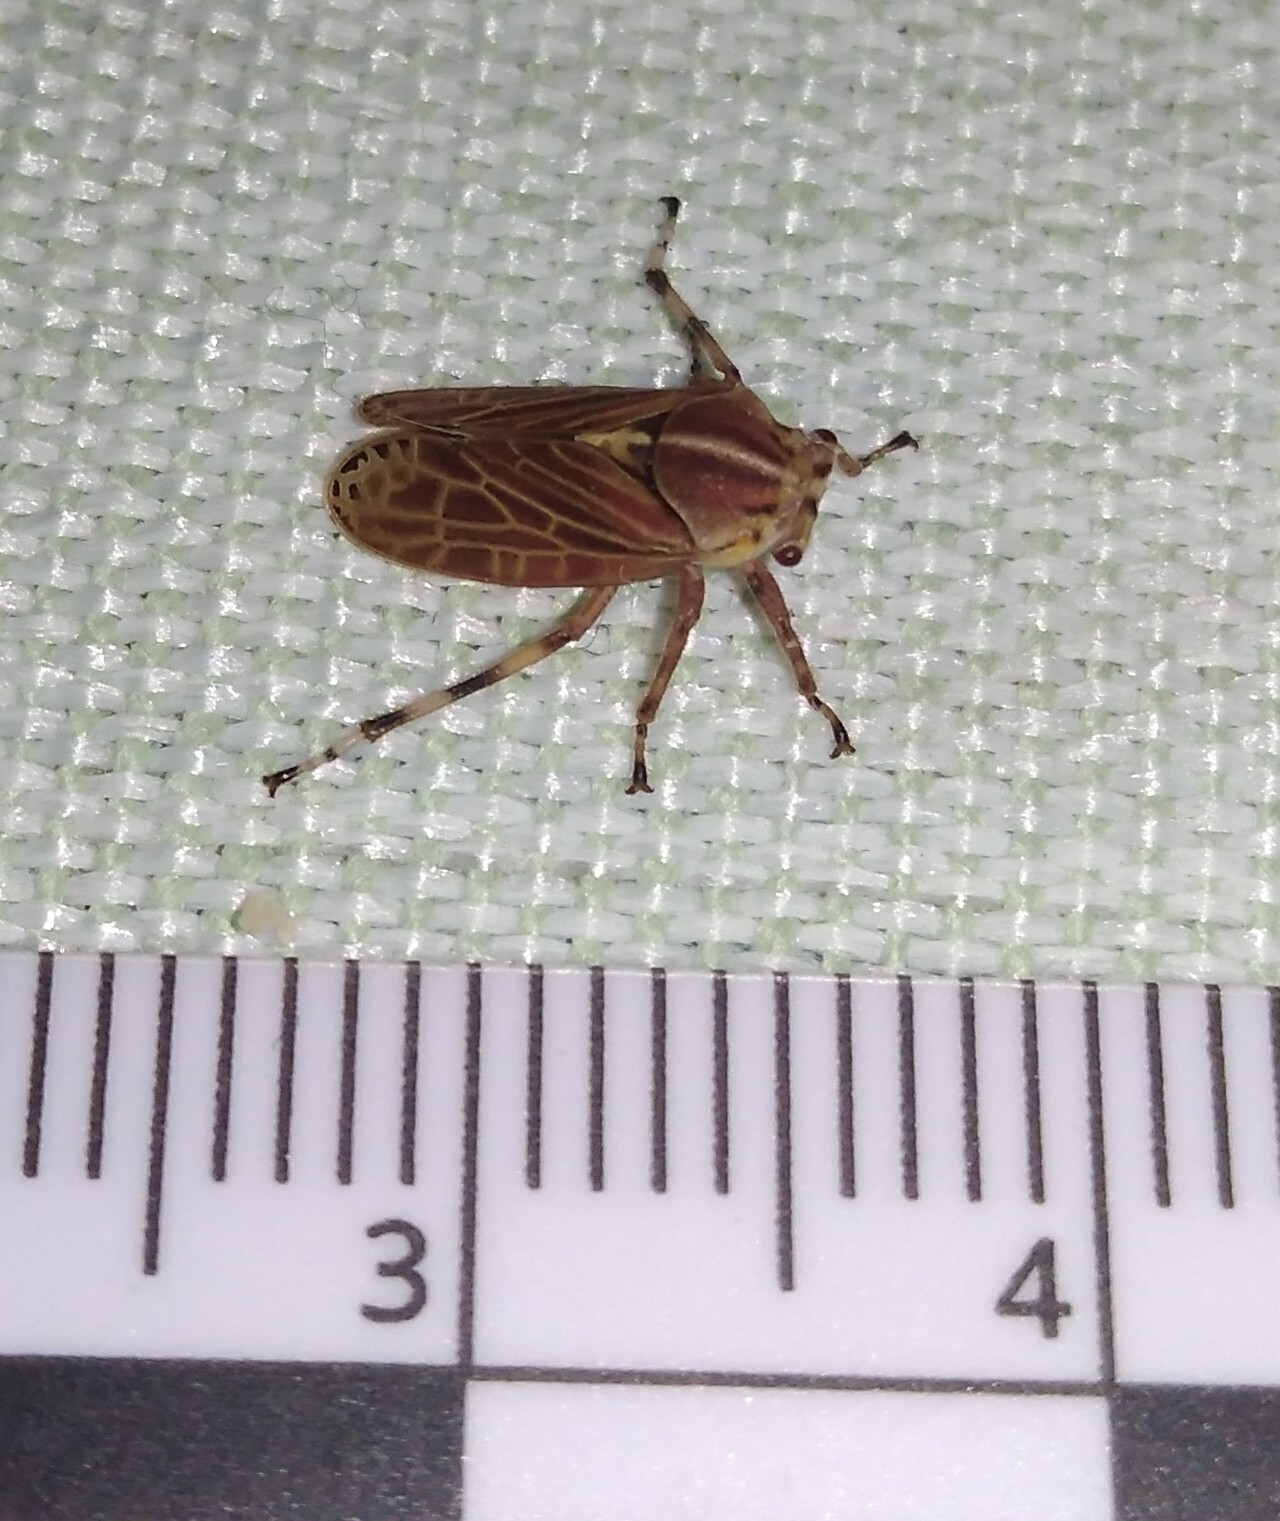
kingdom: Animalia
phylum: Arthropoda
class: Insecta
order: Hemiptera
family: Aetalionidae
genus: Aetalion
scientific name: Aetalion reticulatum
